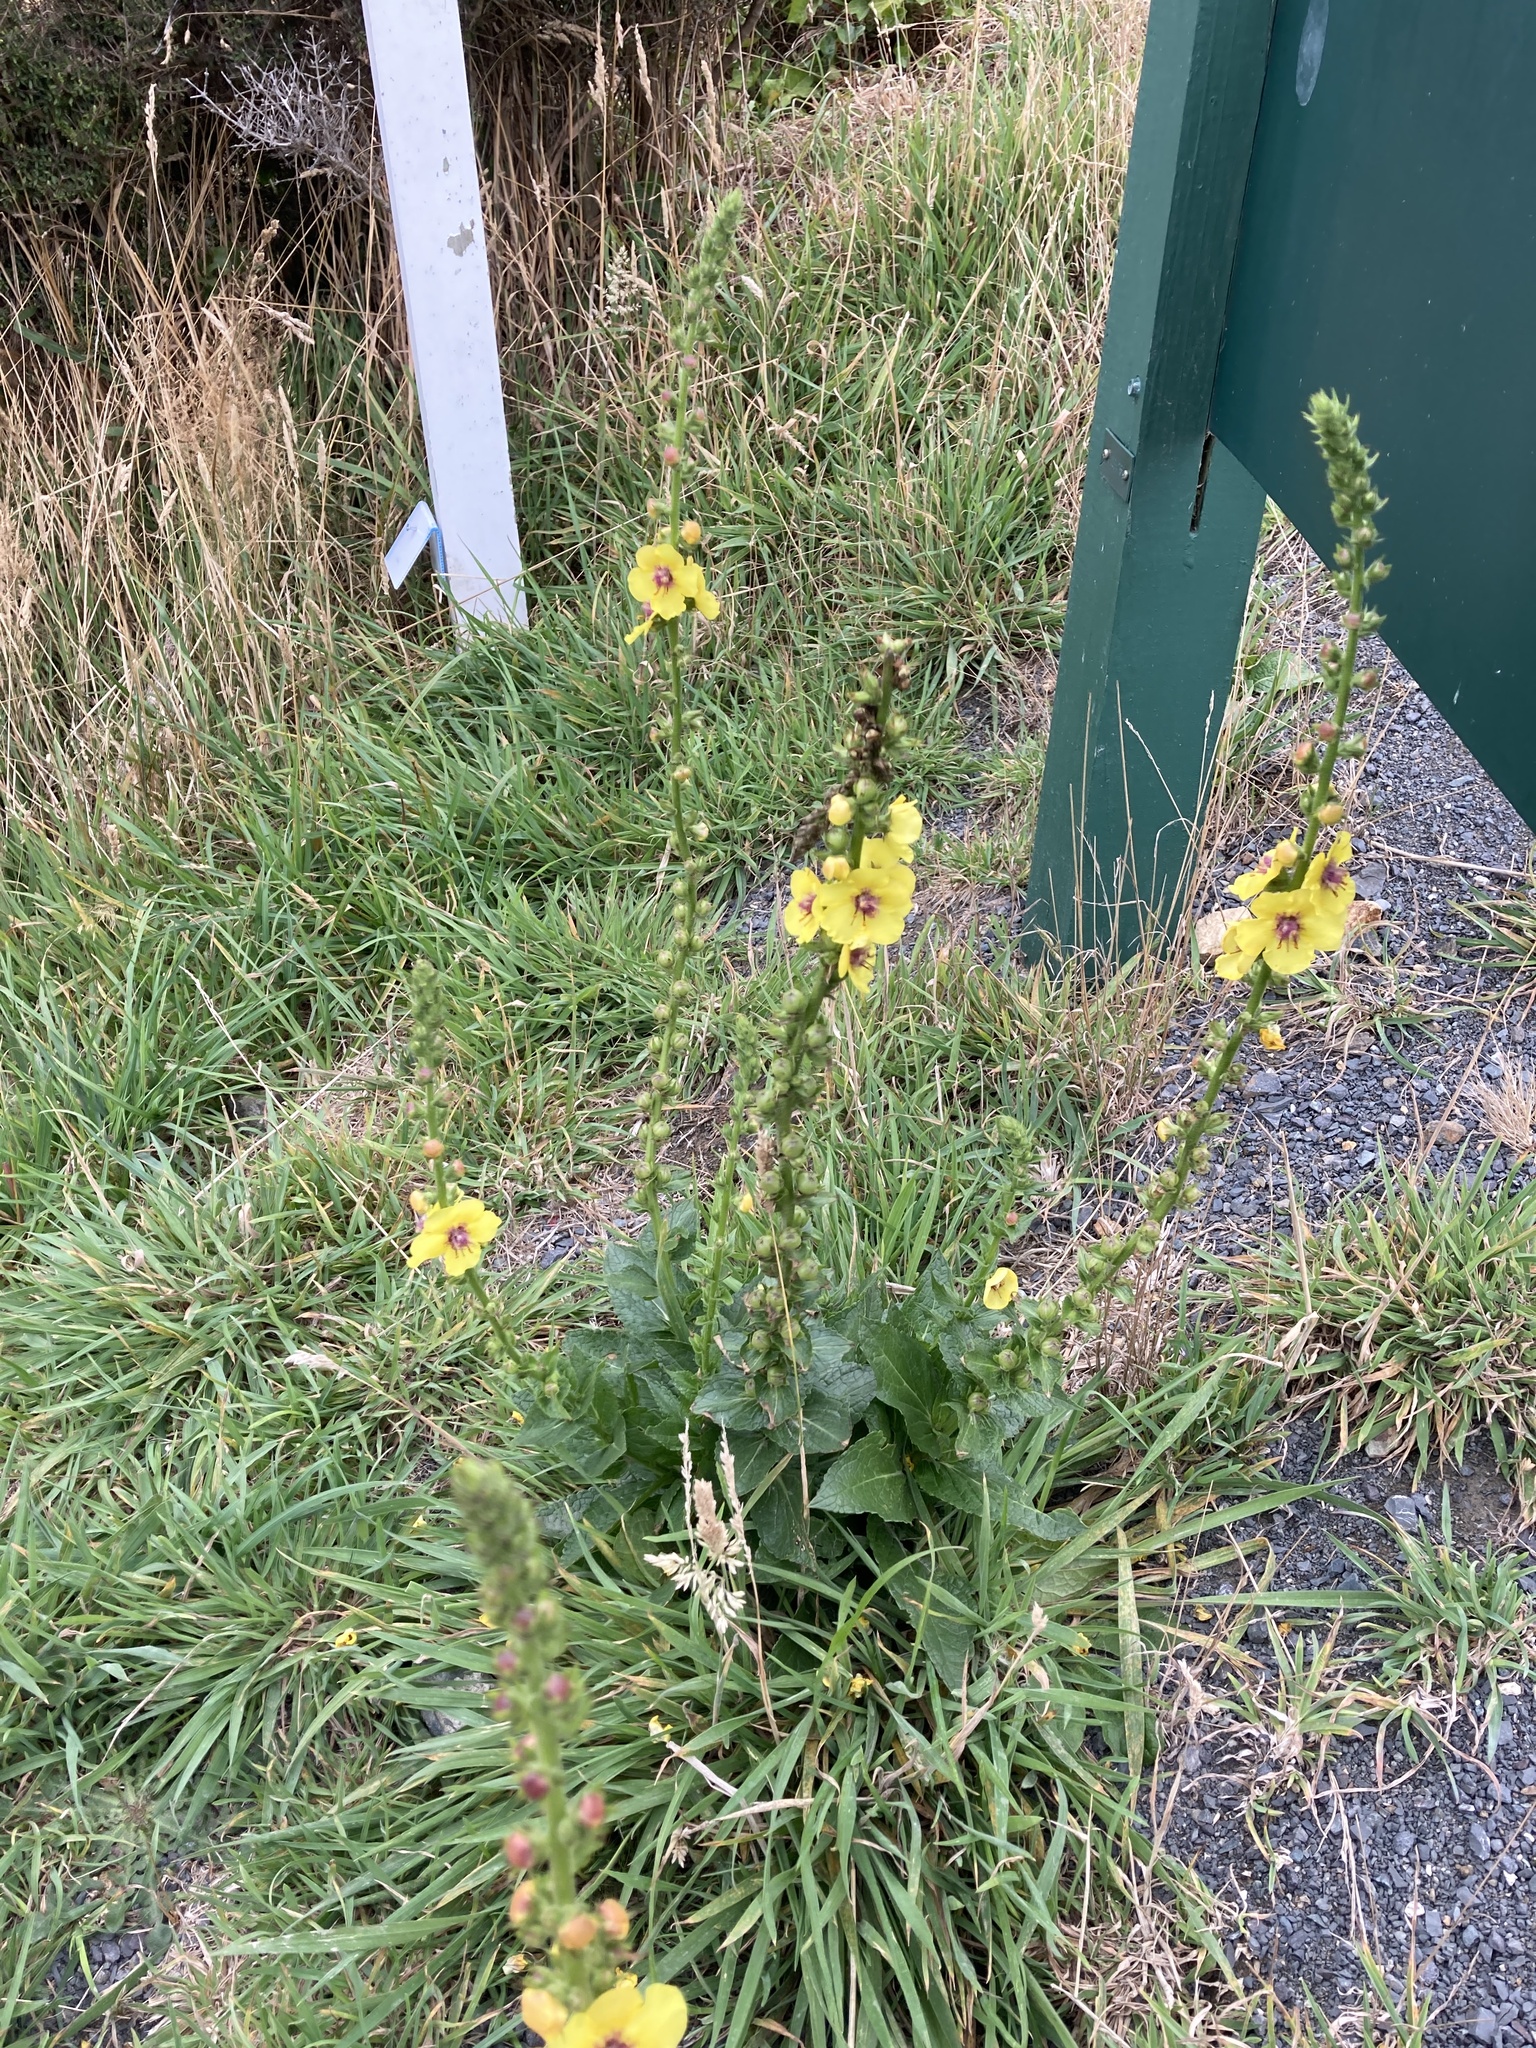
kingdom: Plantae
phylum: Tracheophyta
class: Magnoliopsida
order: Lamiales
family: Scrophulariaceae
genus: Verbascum
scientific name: Verbascum virgatum
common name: Twiggy mullein
